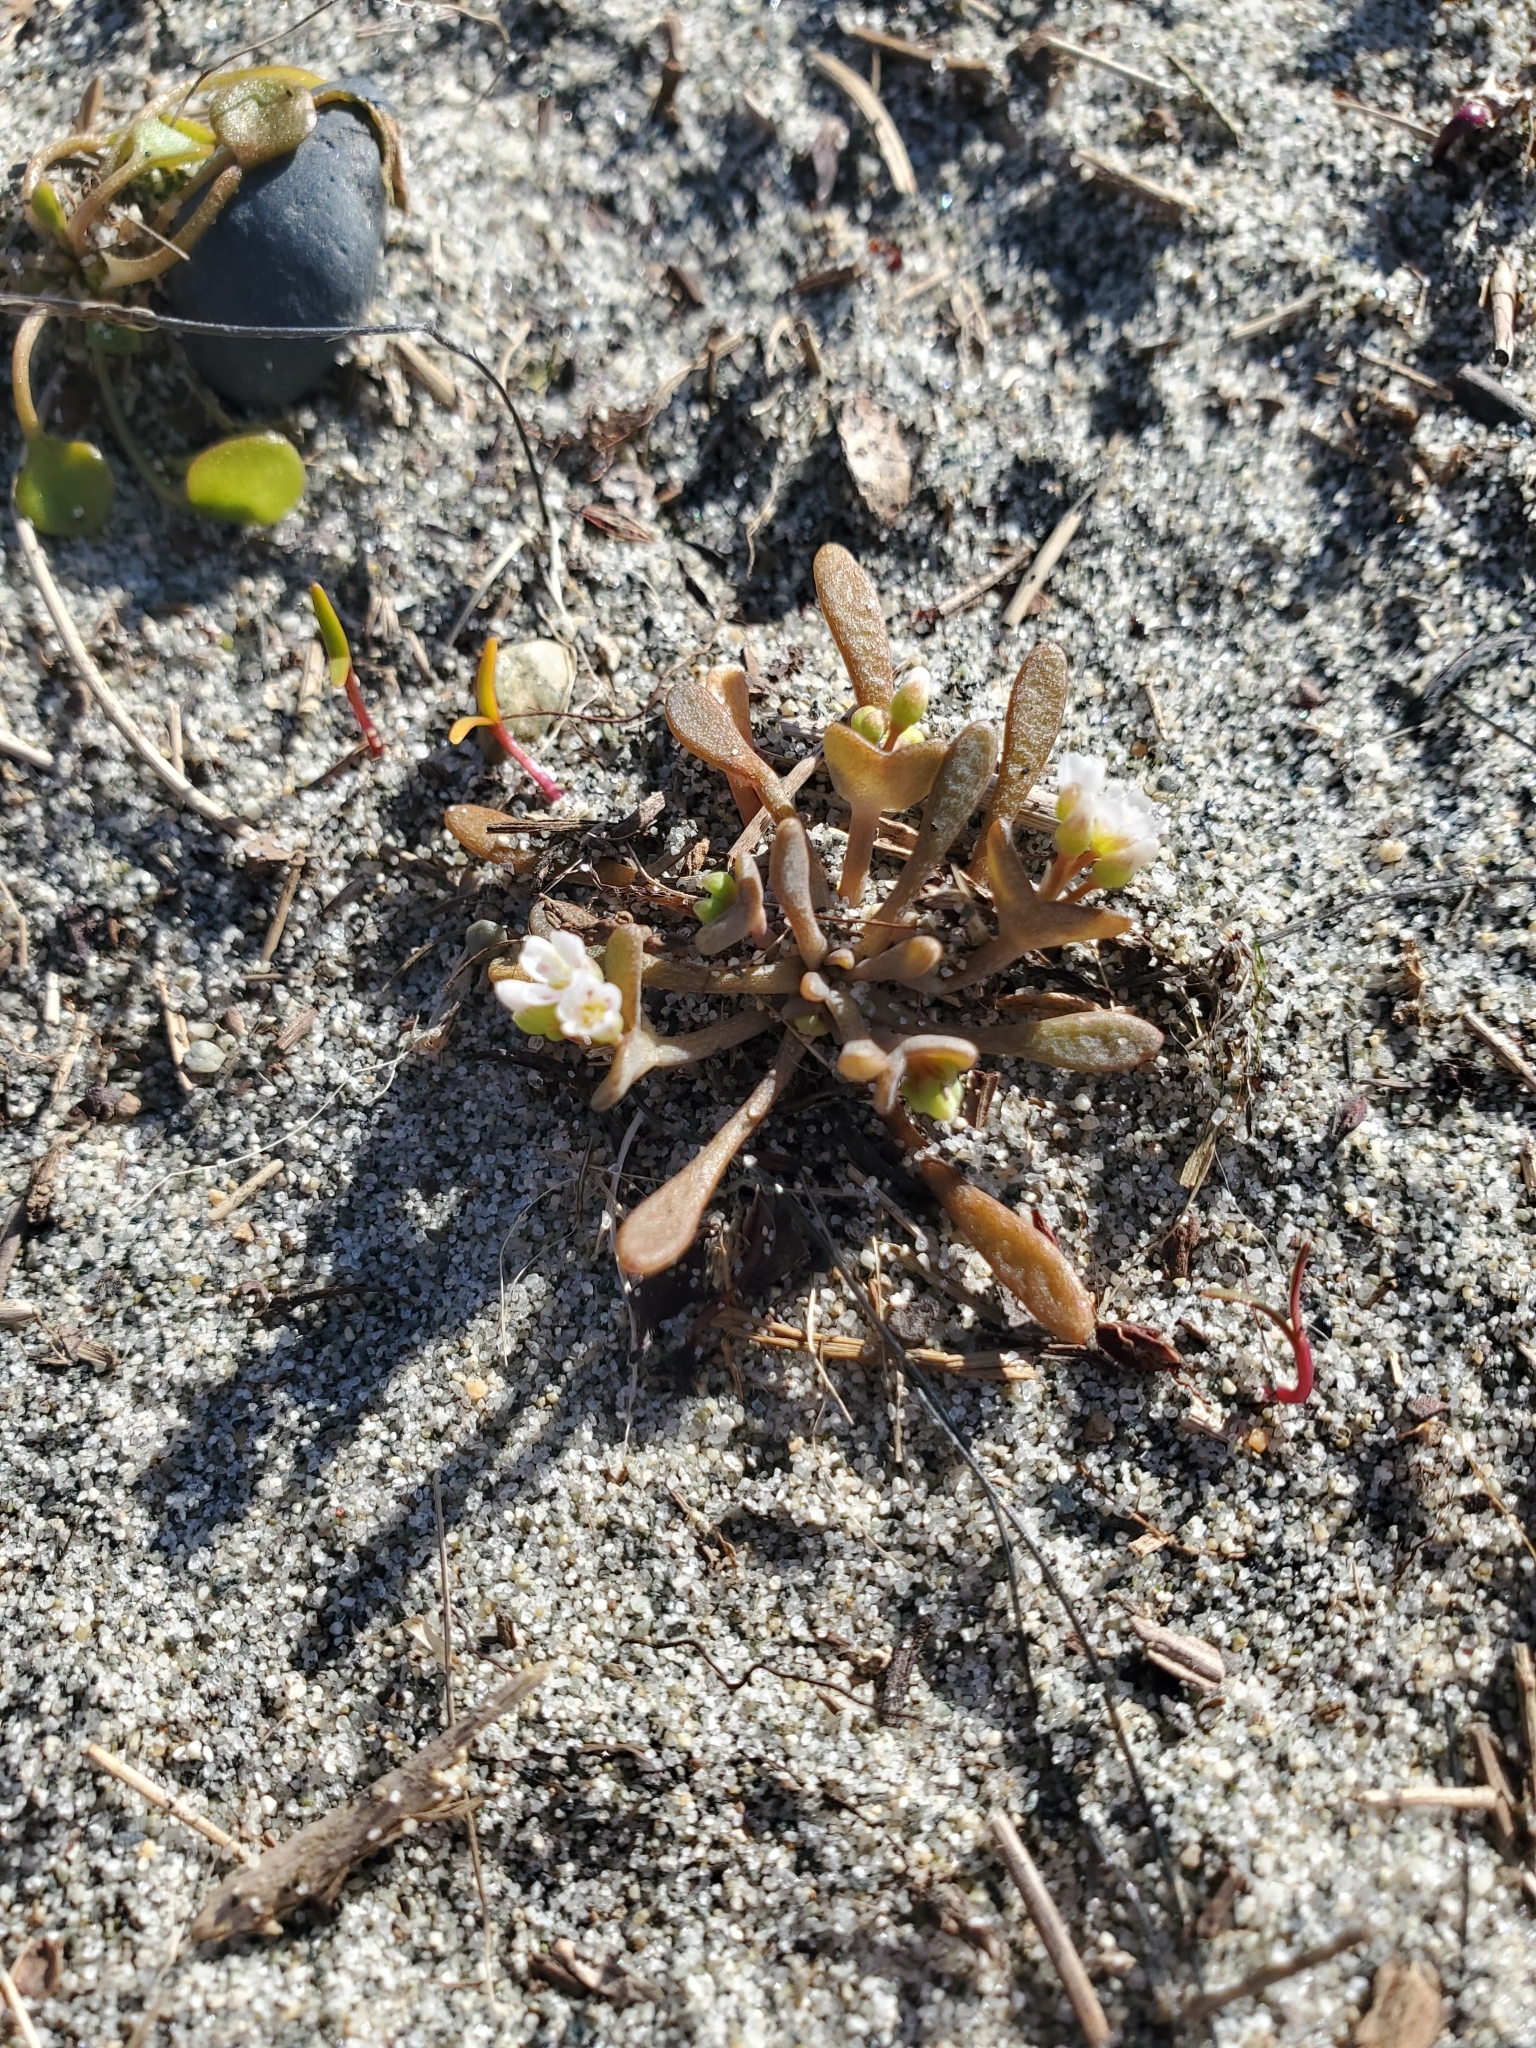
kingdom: Plantae
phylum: Tracheophyta
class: Magnoliopsida
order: Caryophyllales
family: Montiaceae
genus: Claytonia
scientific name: Claytonia exigua
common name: Pale spring beauty
